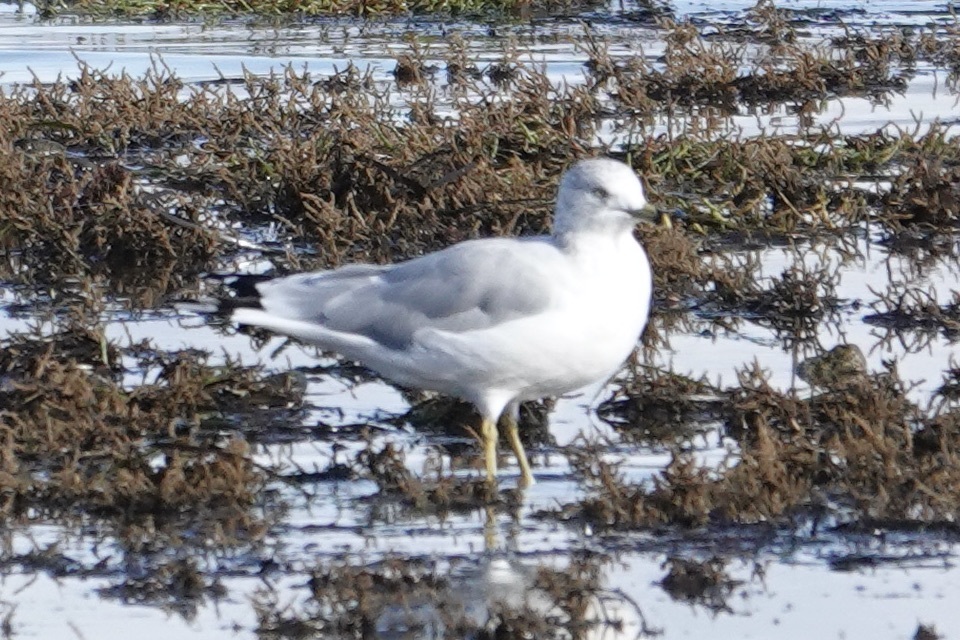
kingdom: Animalia
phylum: Chordata
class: Aves
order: Charadriiformes
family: Laridae
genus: Larus
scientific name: Larus delawarensis
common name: Ring-billed gull
